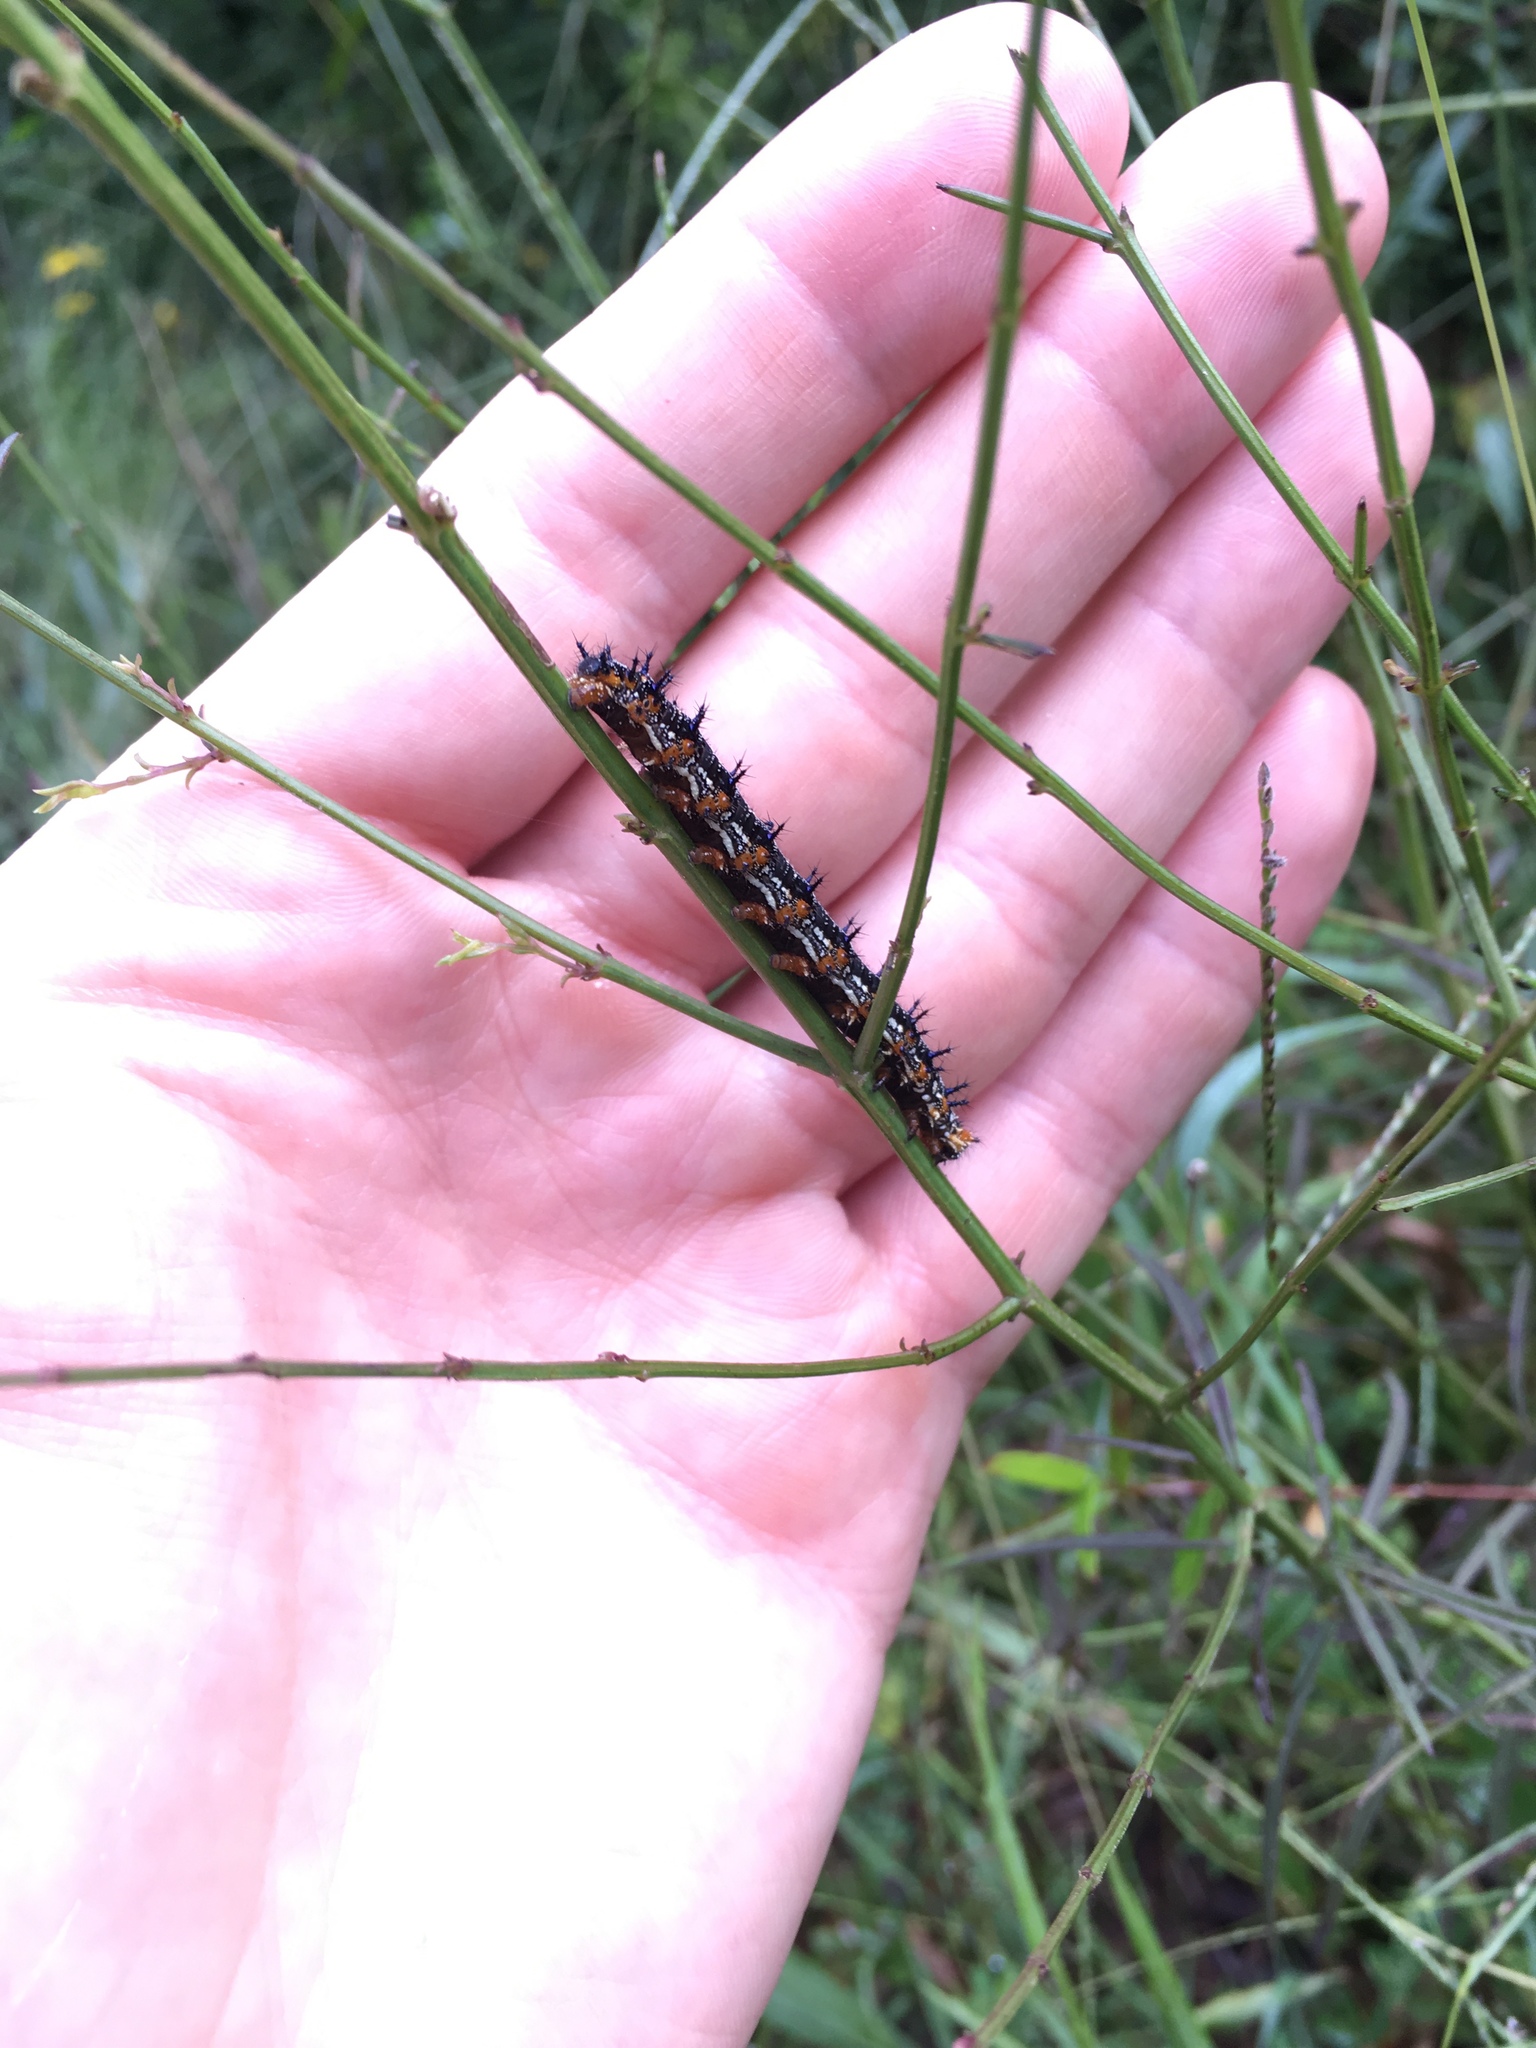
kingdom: Animalia
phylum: Arthropoda
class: Insecta
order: Lepidoptera
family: Nymphalidae
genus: Junonia
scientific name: Junonia coenia
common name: Common buckeye
